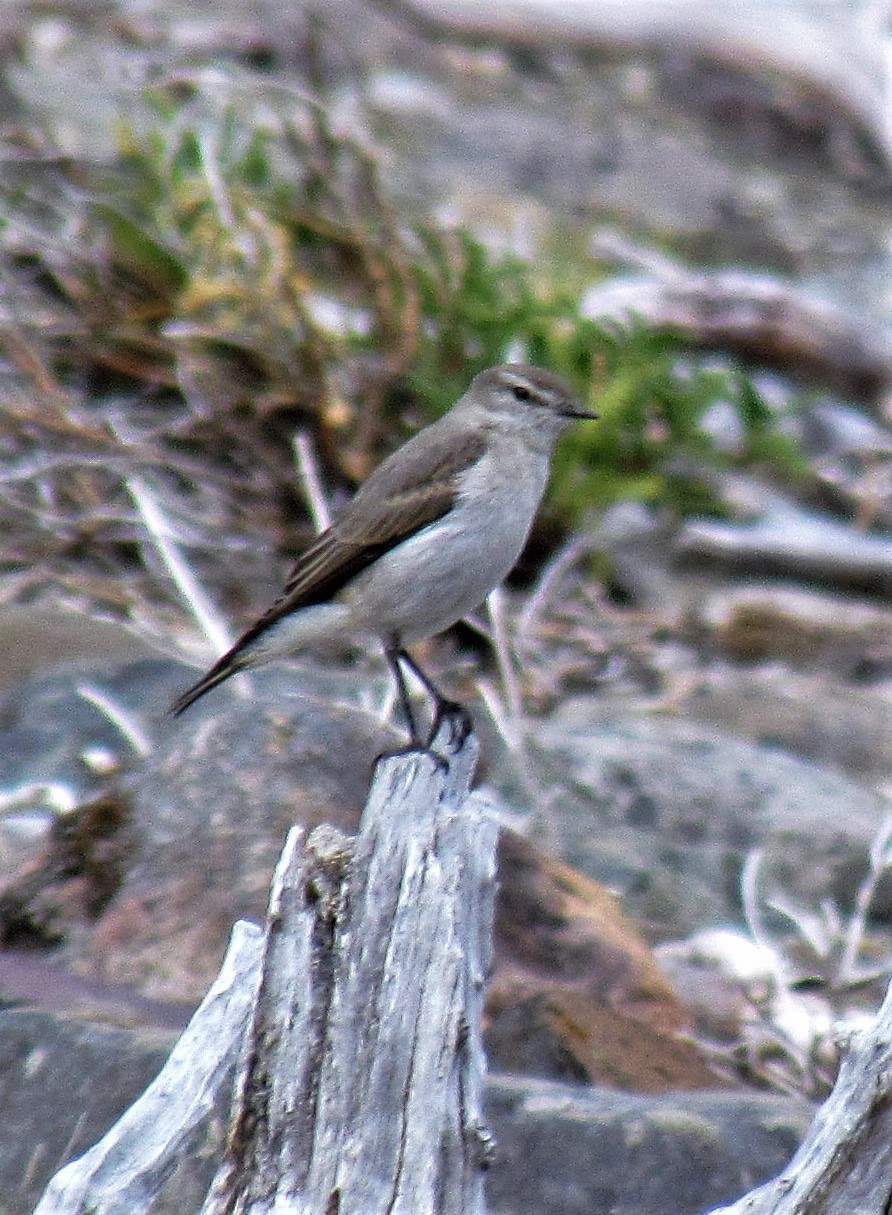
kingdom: Animalia
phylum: Chordata
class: Aves
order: Passeriformes
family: Tyrannidae
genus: Muscisaxicola
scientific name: Muscisaxicola albilora
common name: White-browed ground tyrant
